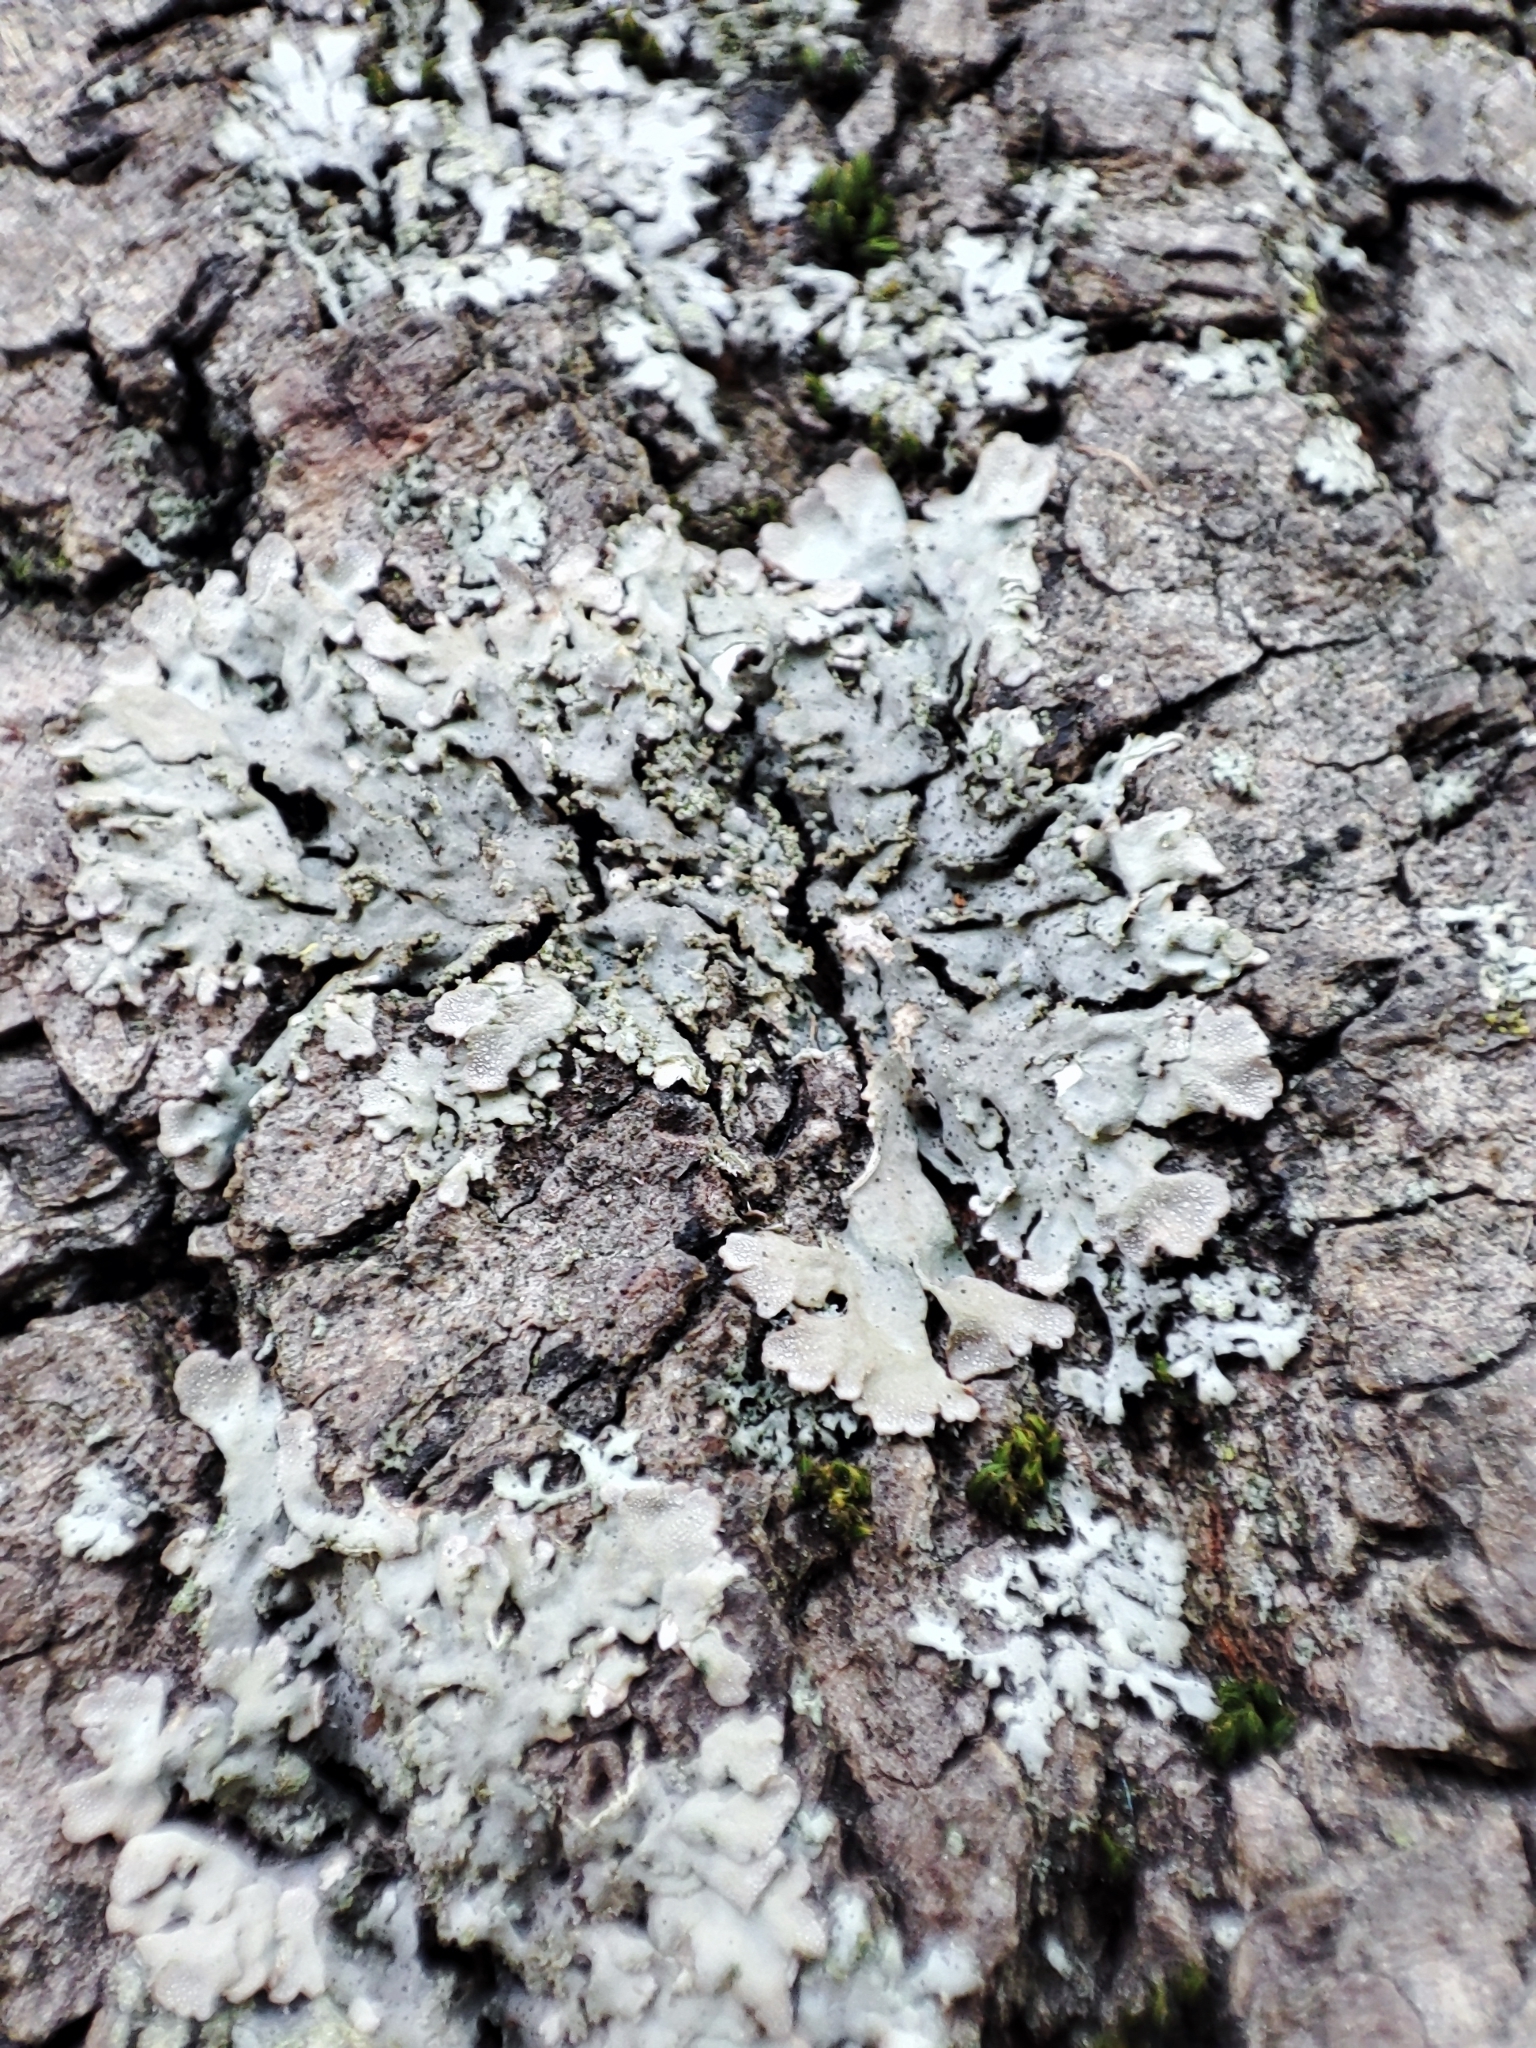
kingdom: Fungi
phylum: Ascomycota
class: Lecanoromycetes
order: Caliciales
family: Physciaceae
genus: Poeltonia
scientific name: Poeltonia grisea
